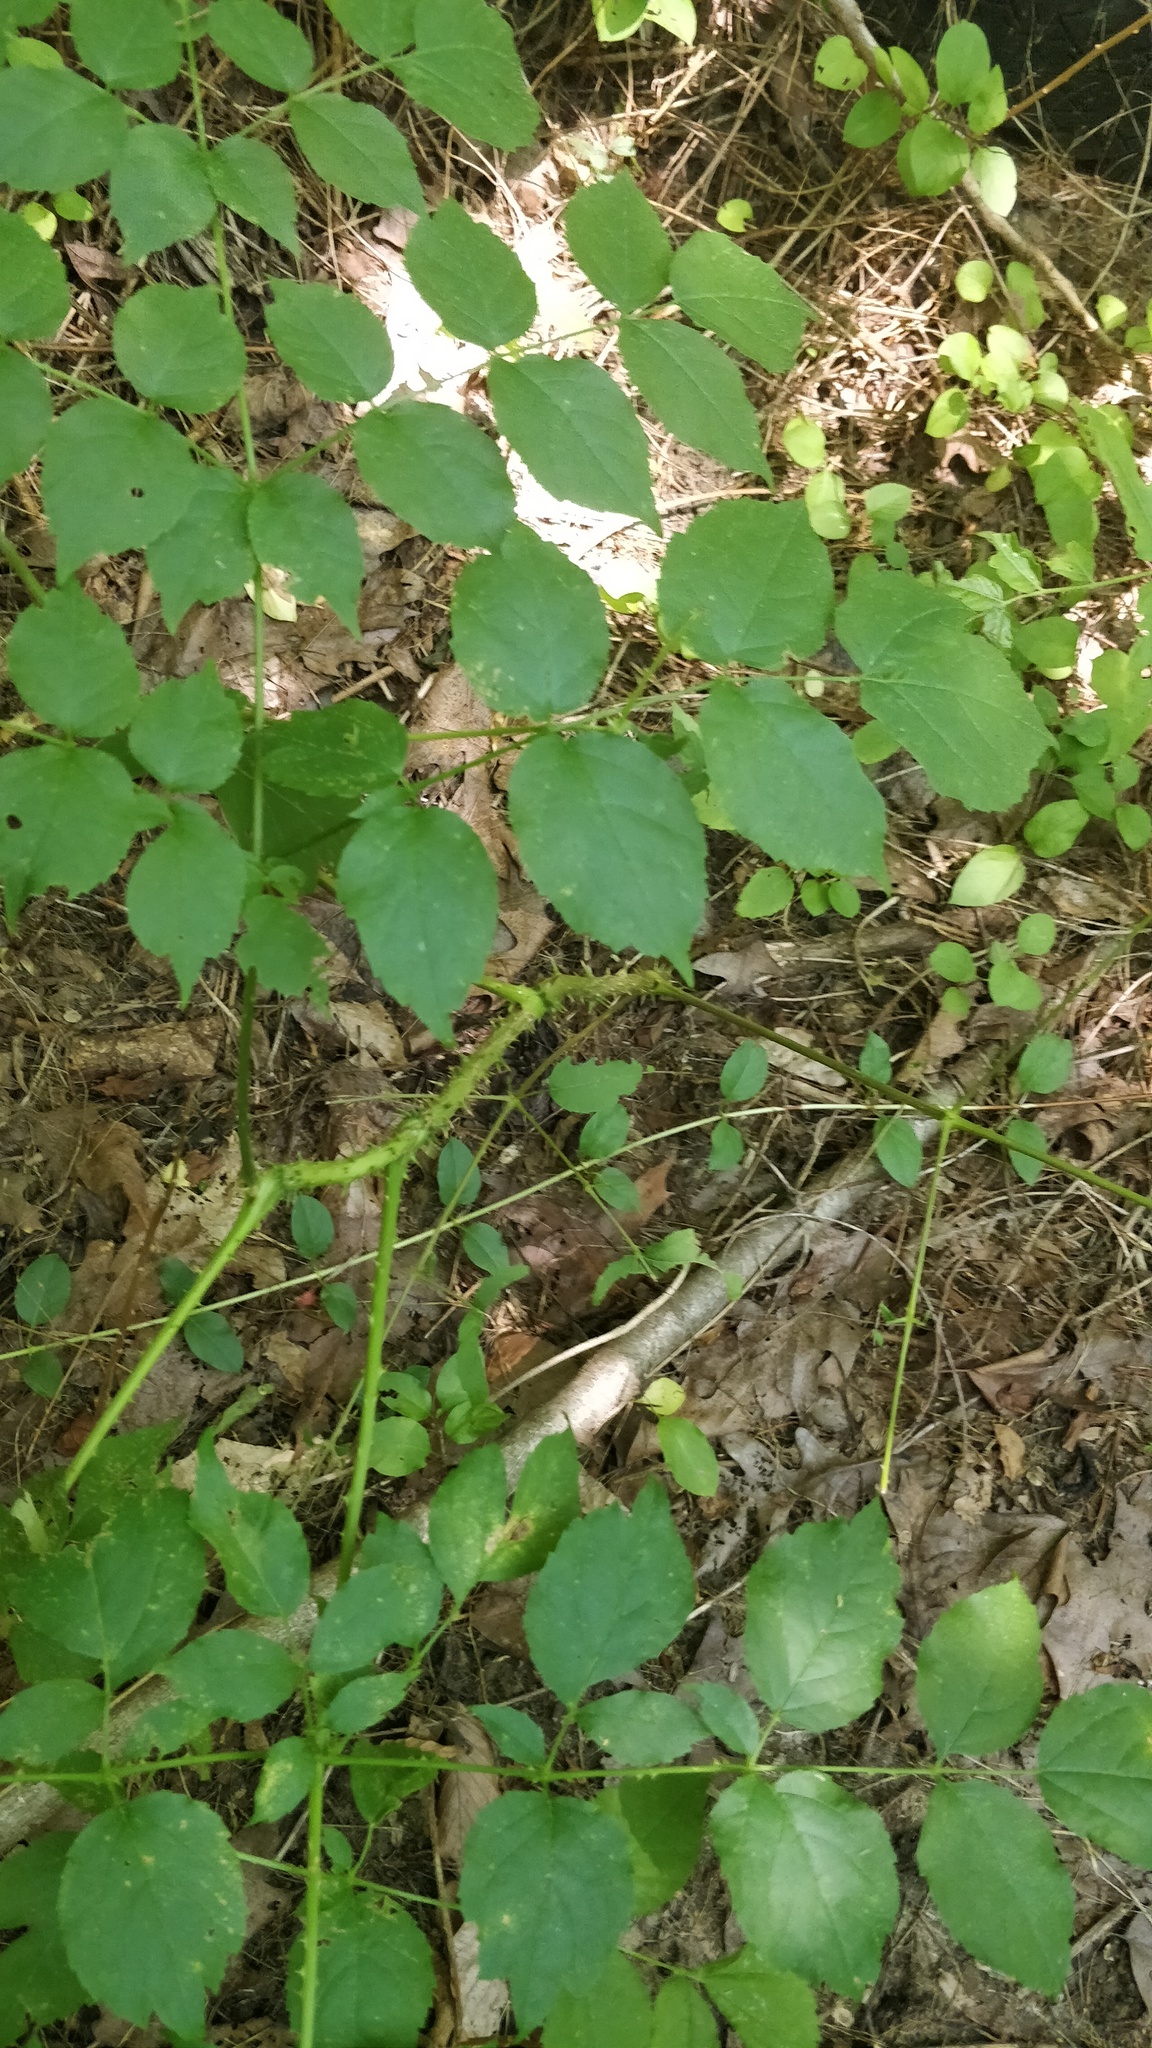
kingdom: Plantae
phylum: Tracheophyta
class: Magnoliopsida
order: Apiales
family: Araliaceae
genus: Aralia
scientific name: Aralia spinosa
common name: Hercules'-club
